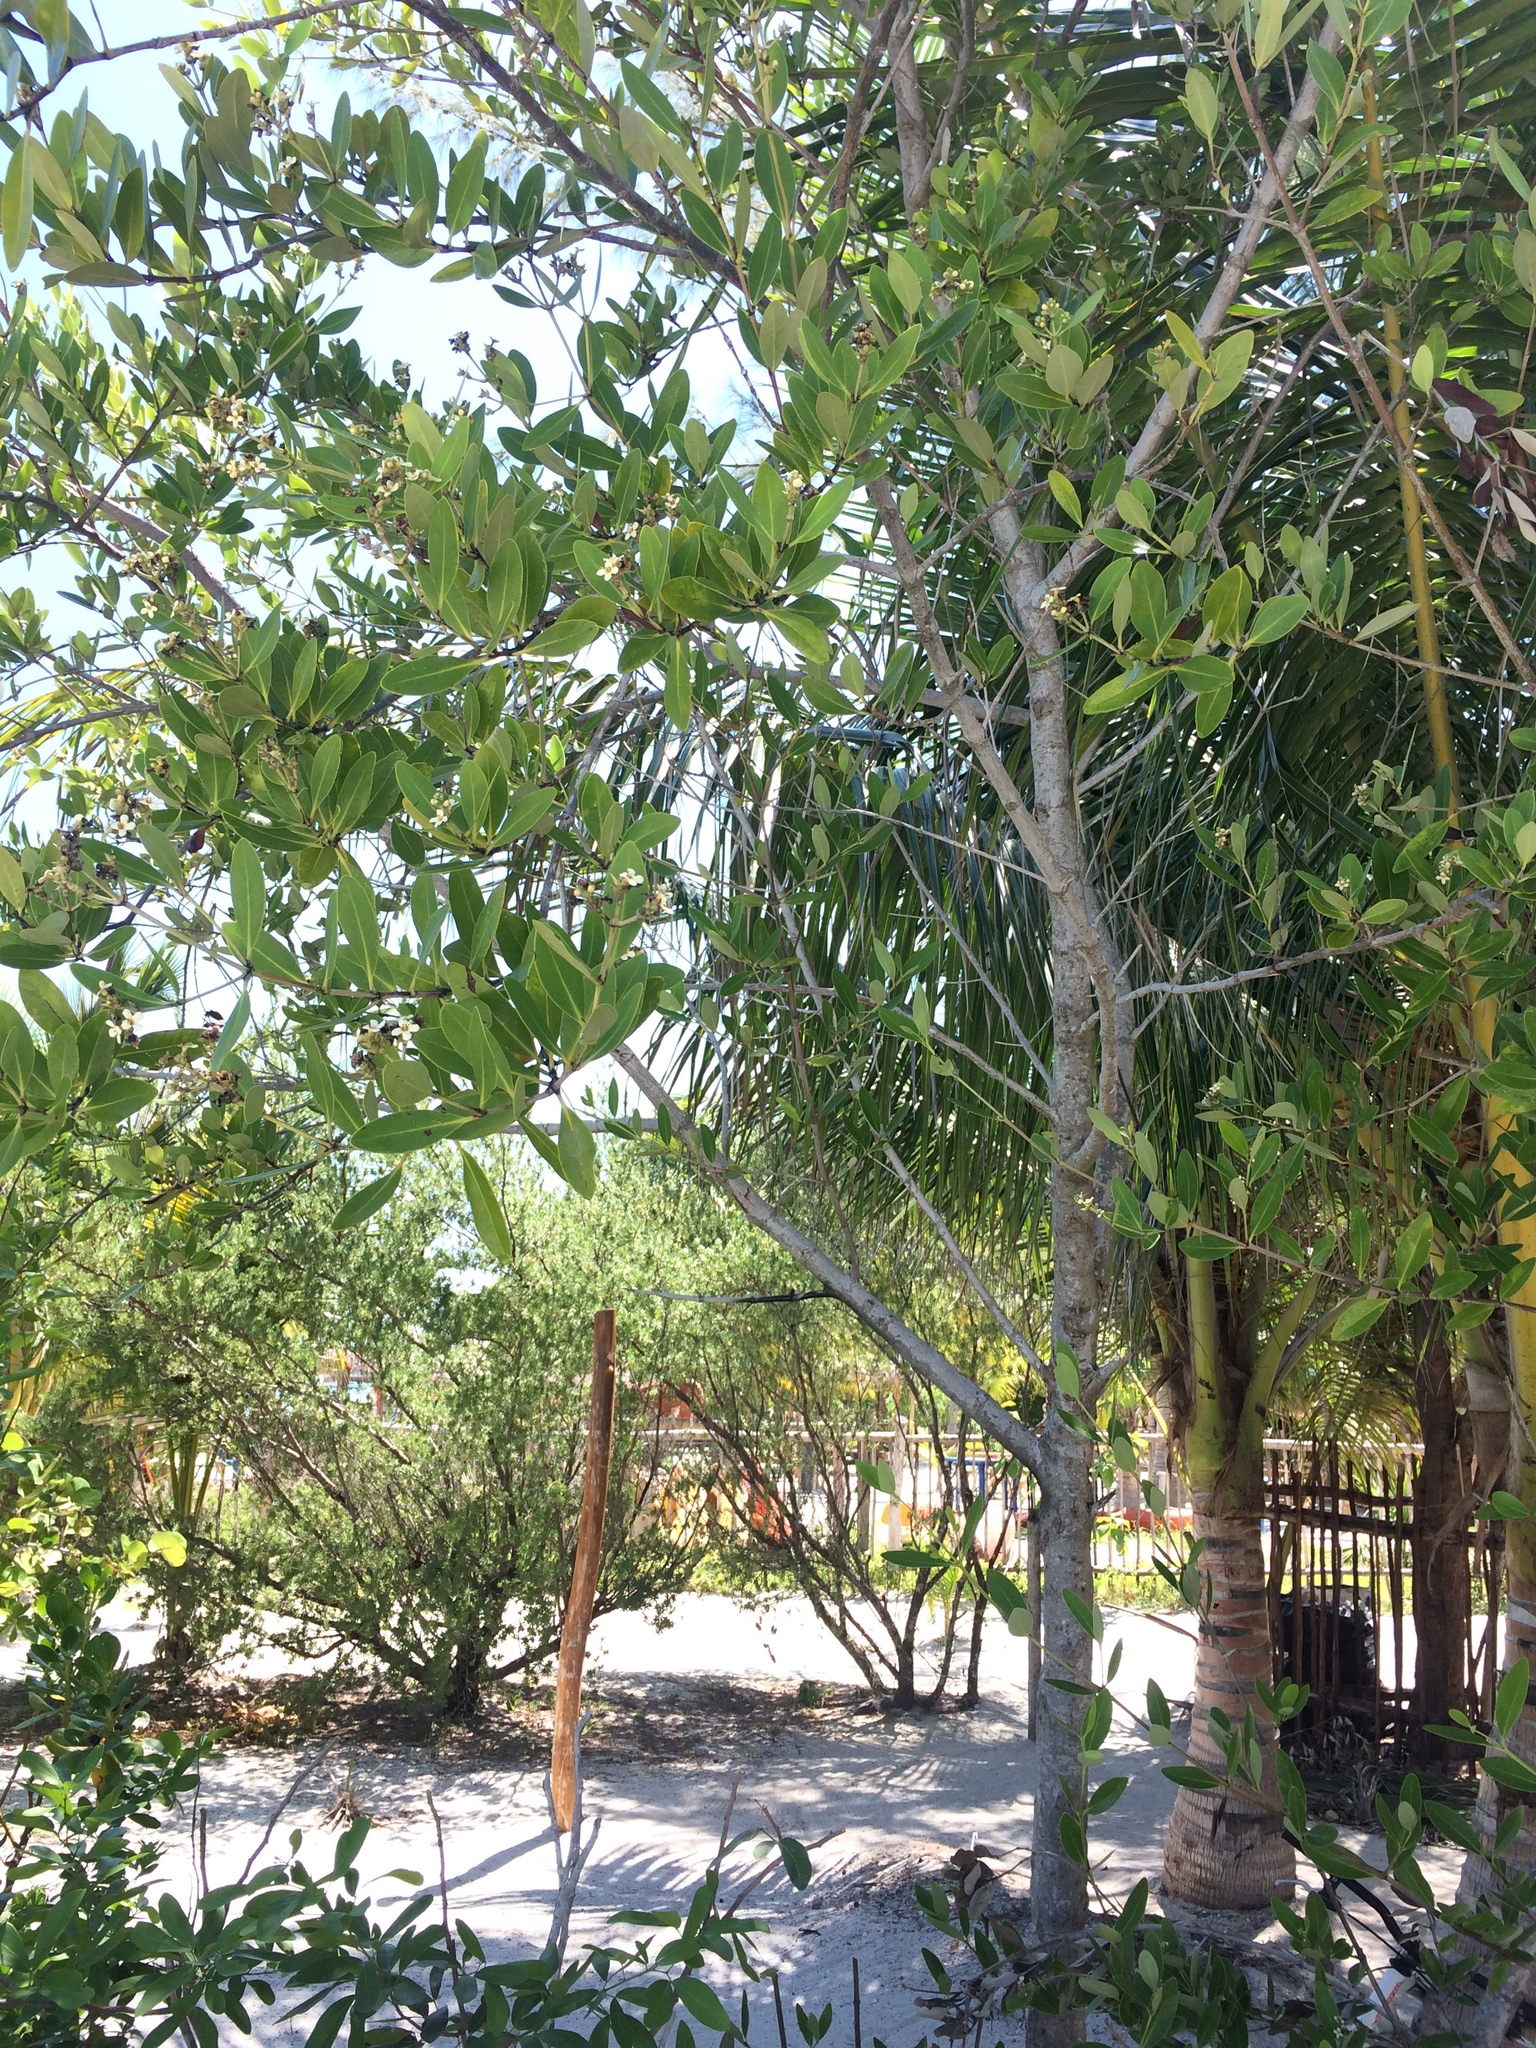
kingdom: Plantae
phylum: Tracheophyta
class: Magnoliopsida
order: Lamiales
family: Acanthaceae
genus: Avicennia
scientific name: Avicennia germinans
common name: Black mangrove
